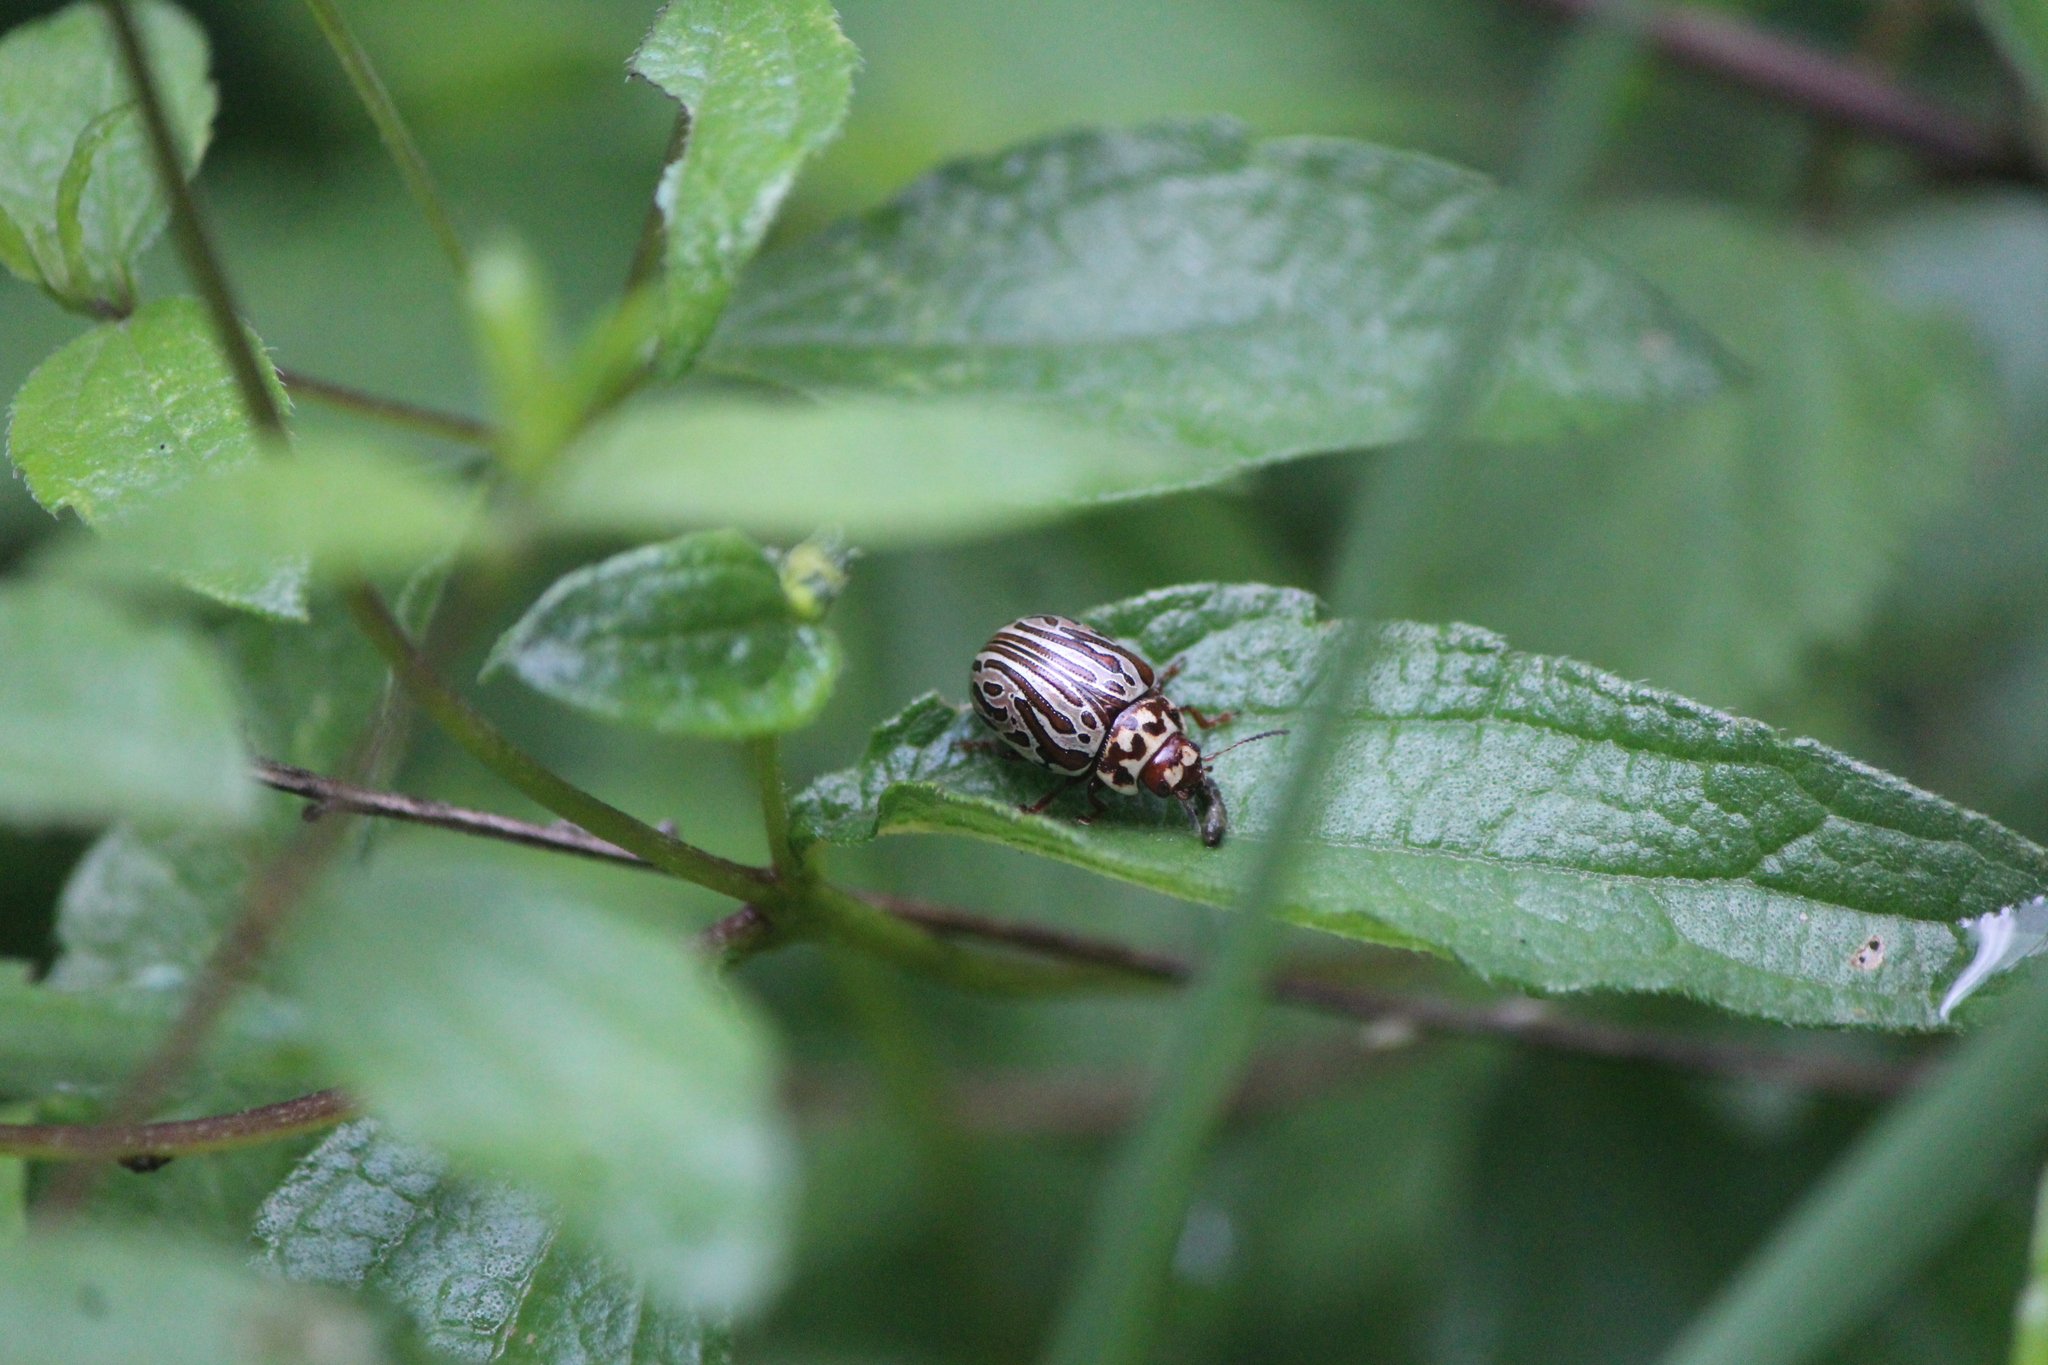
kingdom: Animalia
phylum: Arthropoda
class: Insecta
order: Coleoptera
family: Chrysomelidae
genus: Calligrapha
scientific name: Calligrapha thermalis
